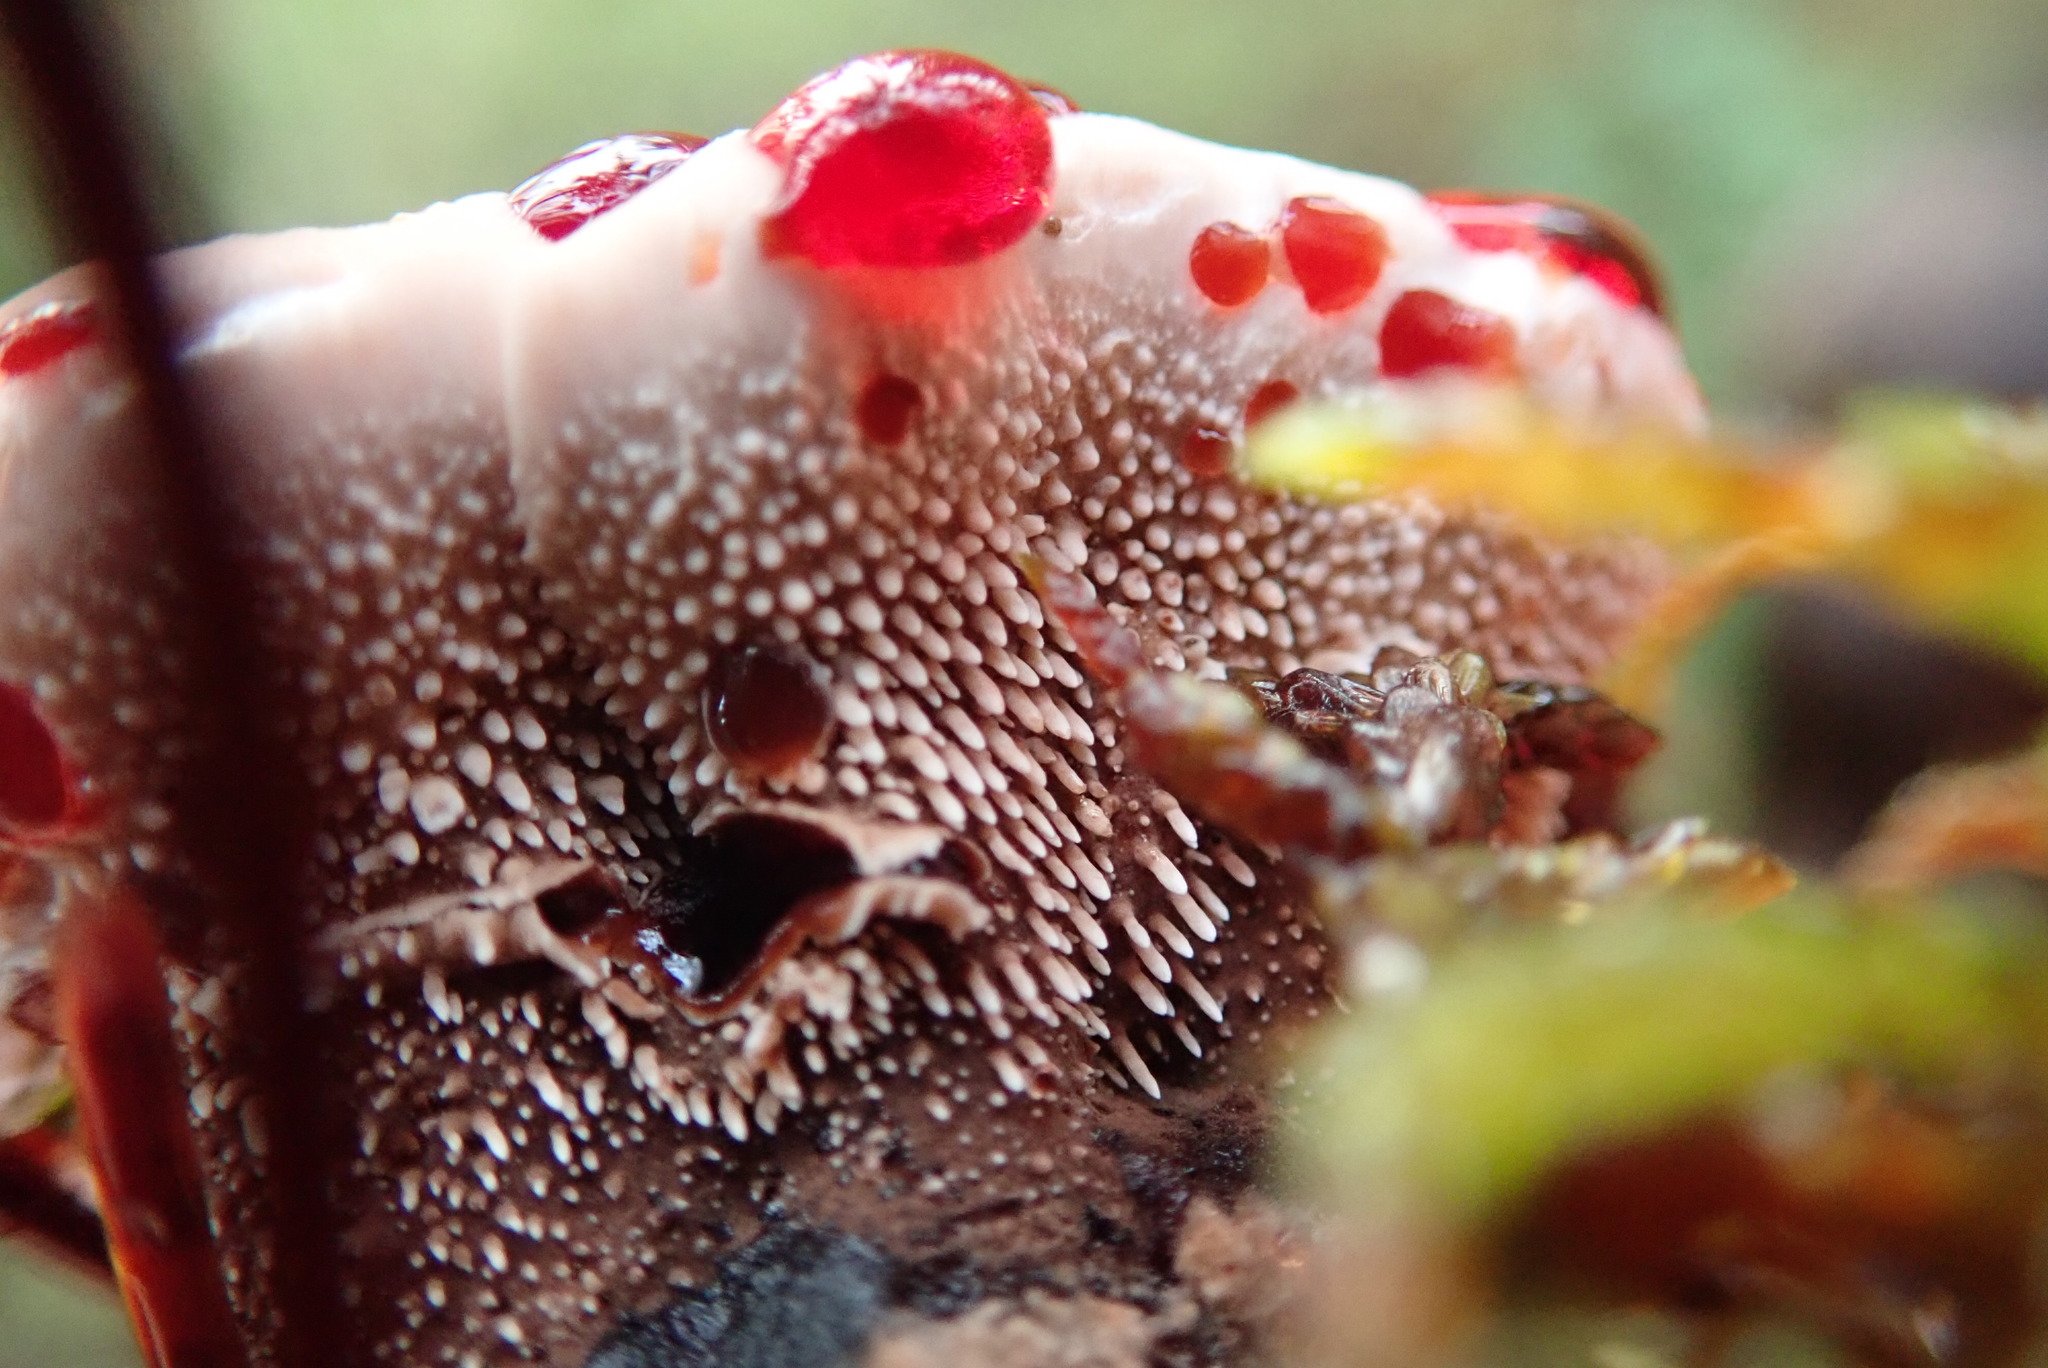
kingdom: Fungi
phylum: Basidiomycota
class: Agaricomycetes
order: Thelephorales
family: Bankeraceae
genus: Hydnellum
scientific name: Hydnellum peckii
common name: Devil's tooth
